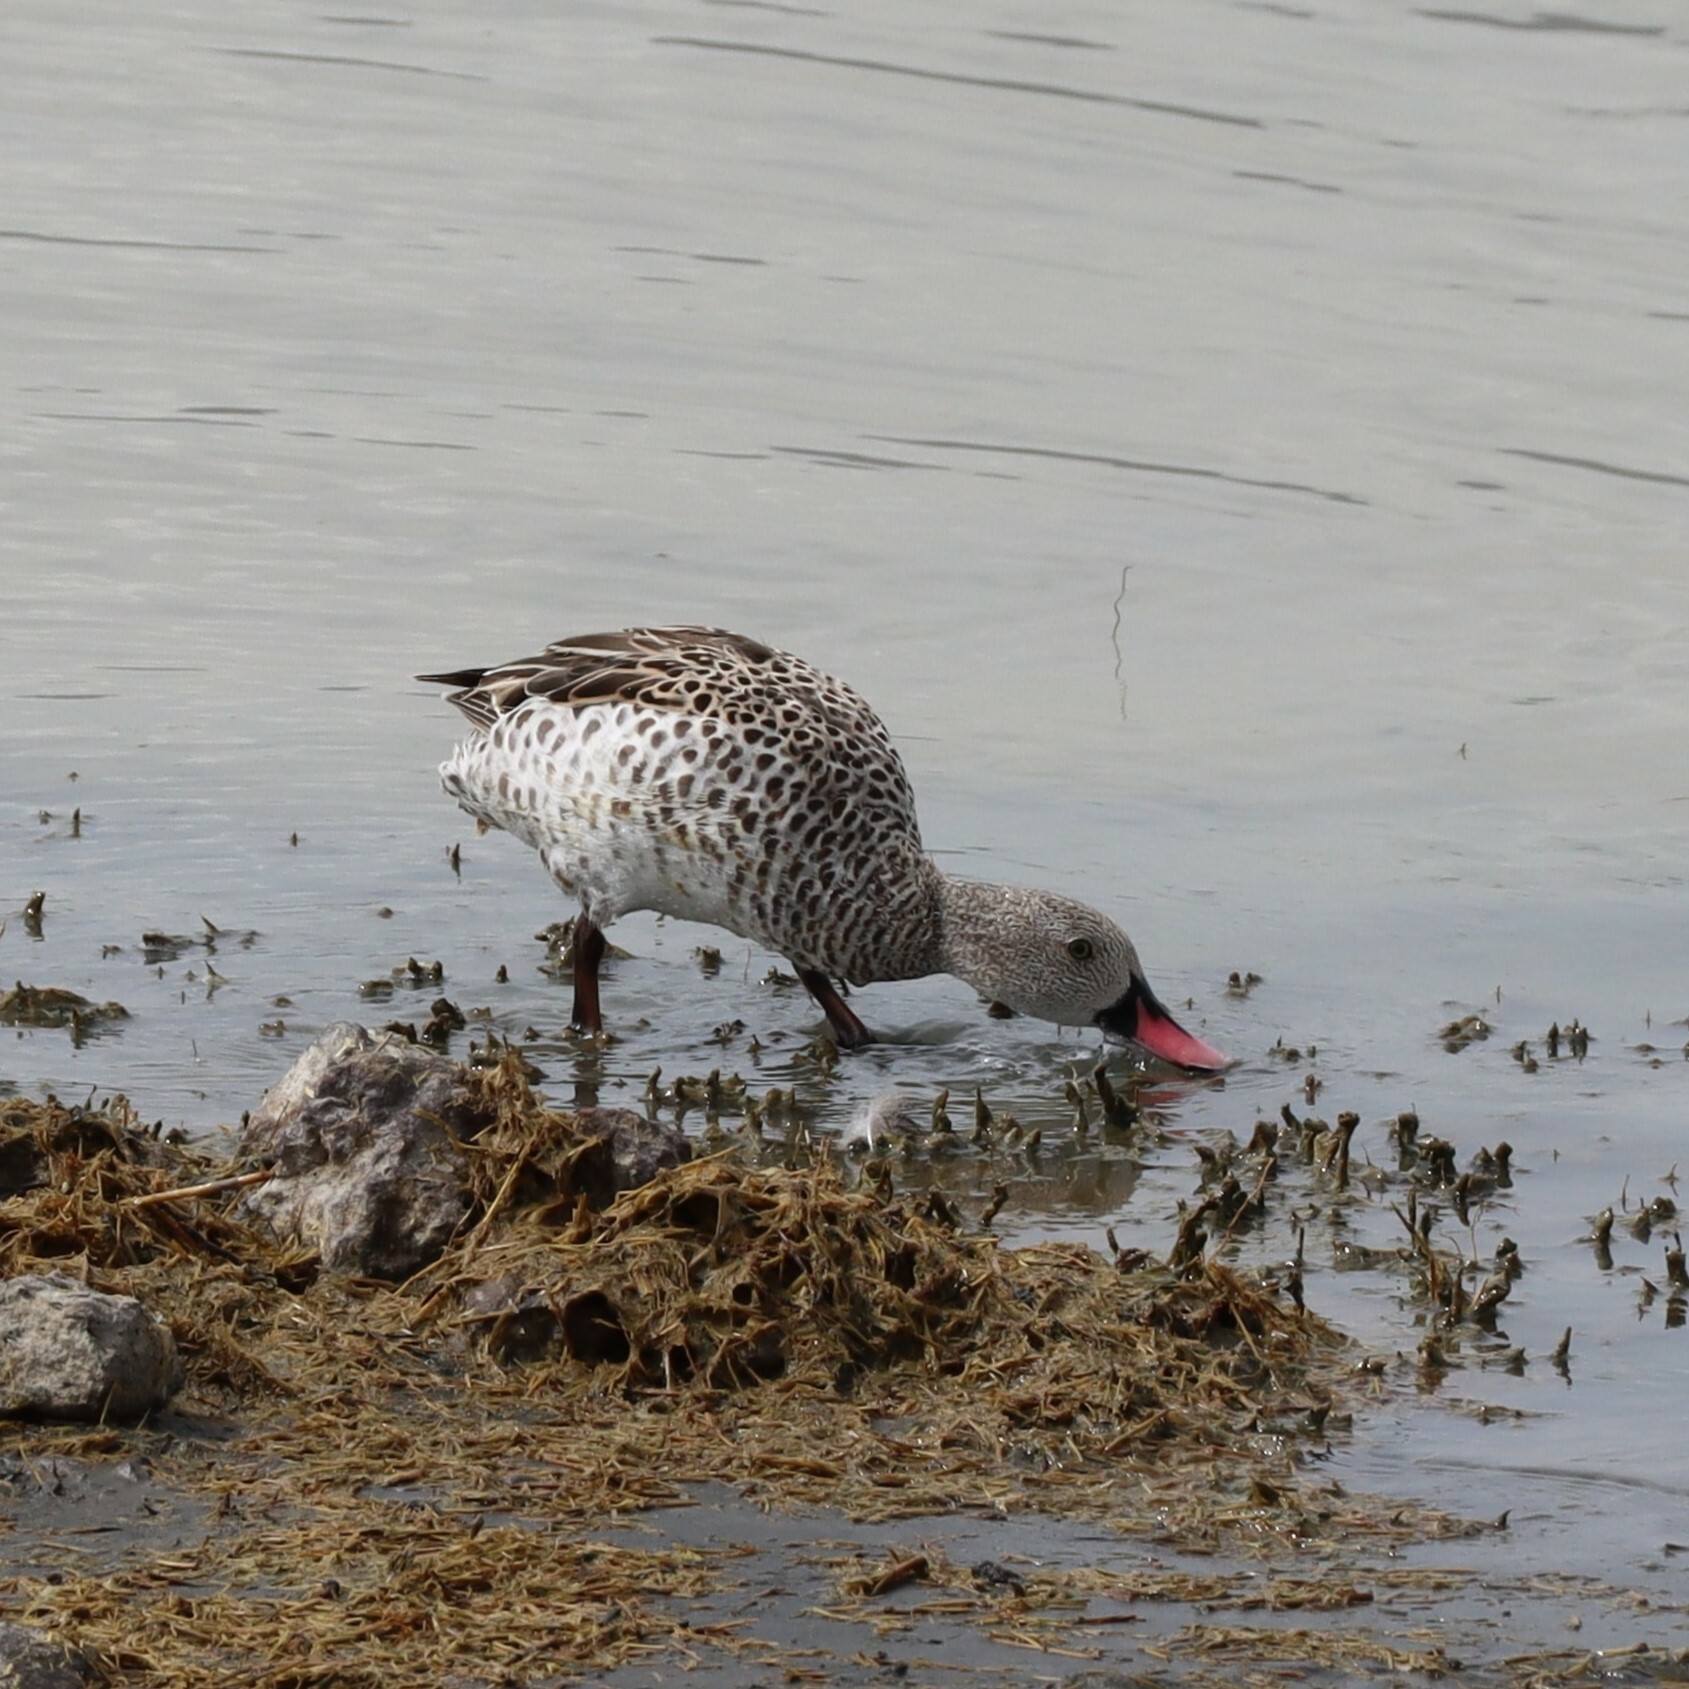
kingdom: Animalia
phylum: Chordata
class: Aves
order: Anseriformes
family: Anatidae
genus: Anas
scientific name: Anas capensis
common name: Cape teal
